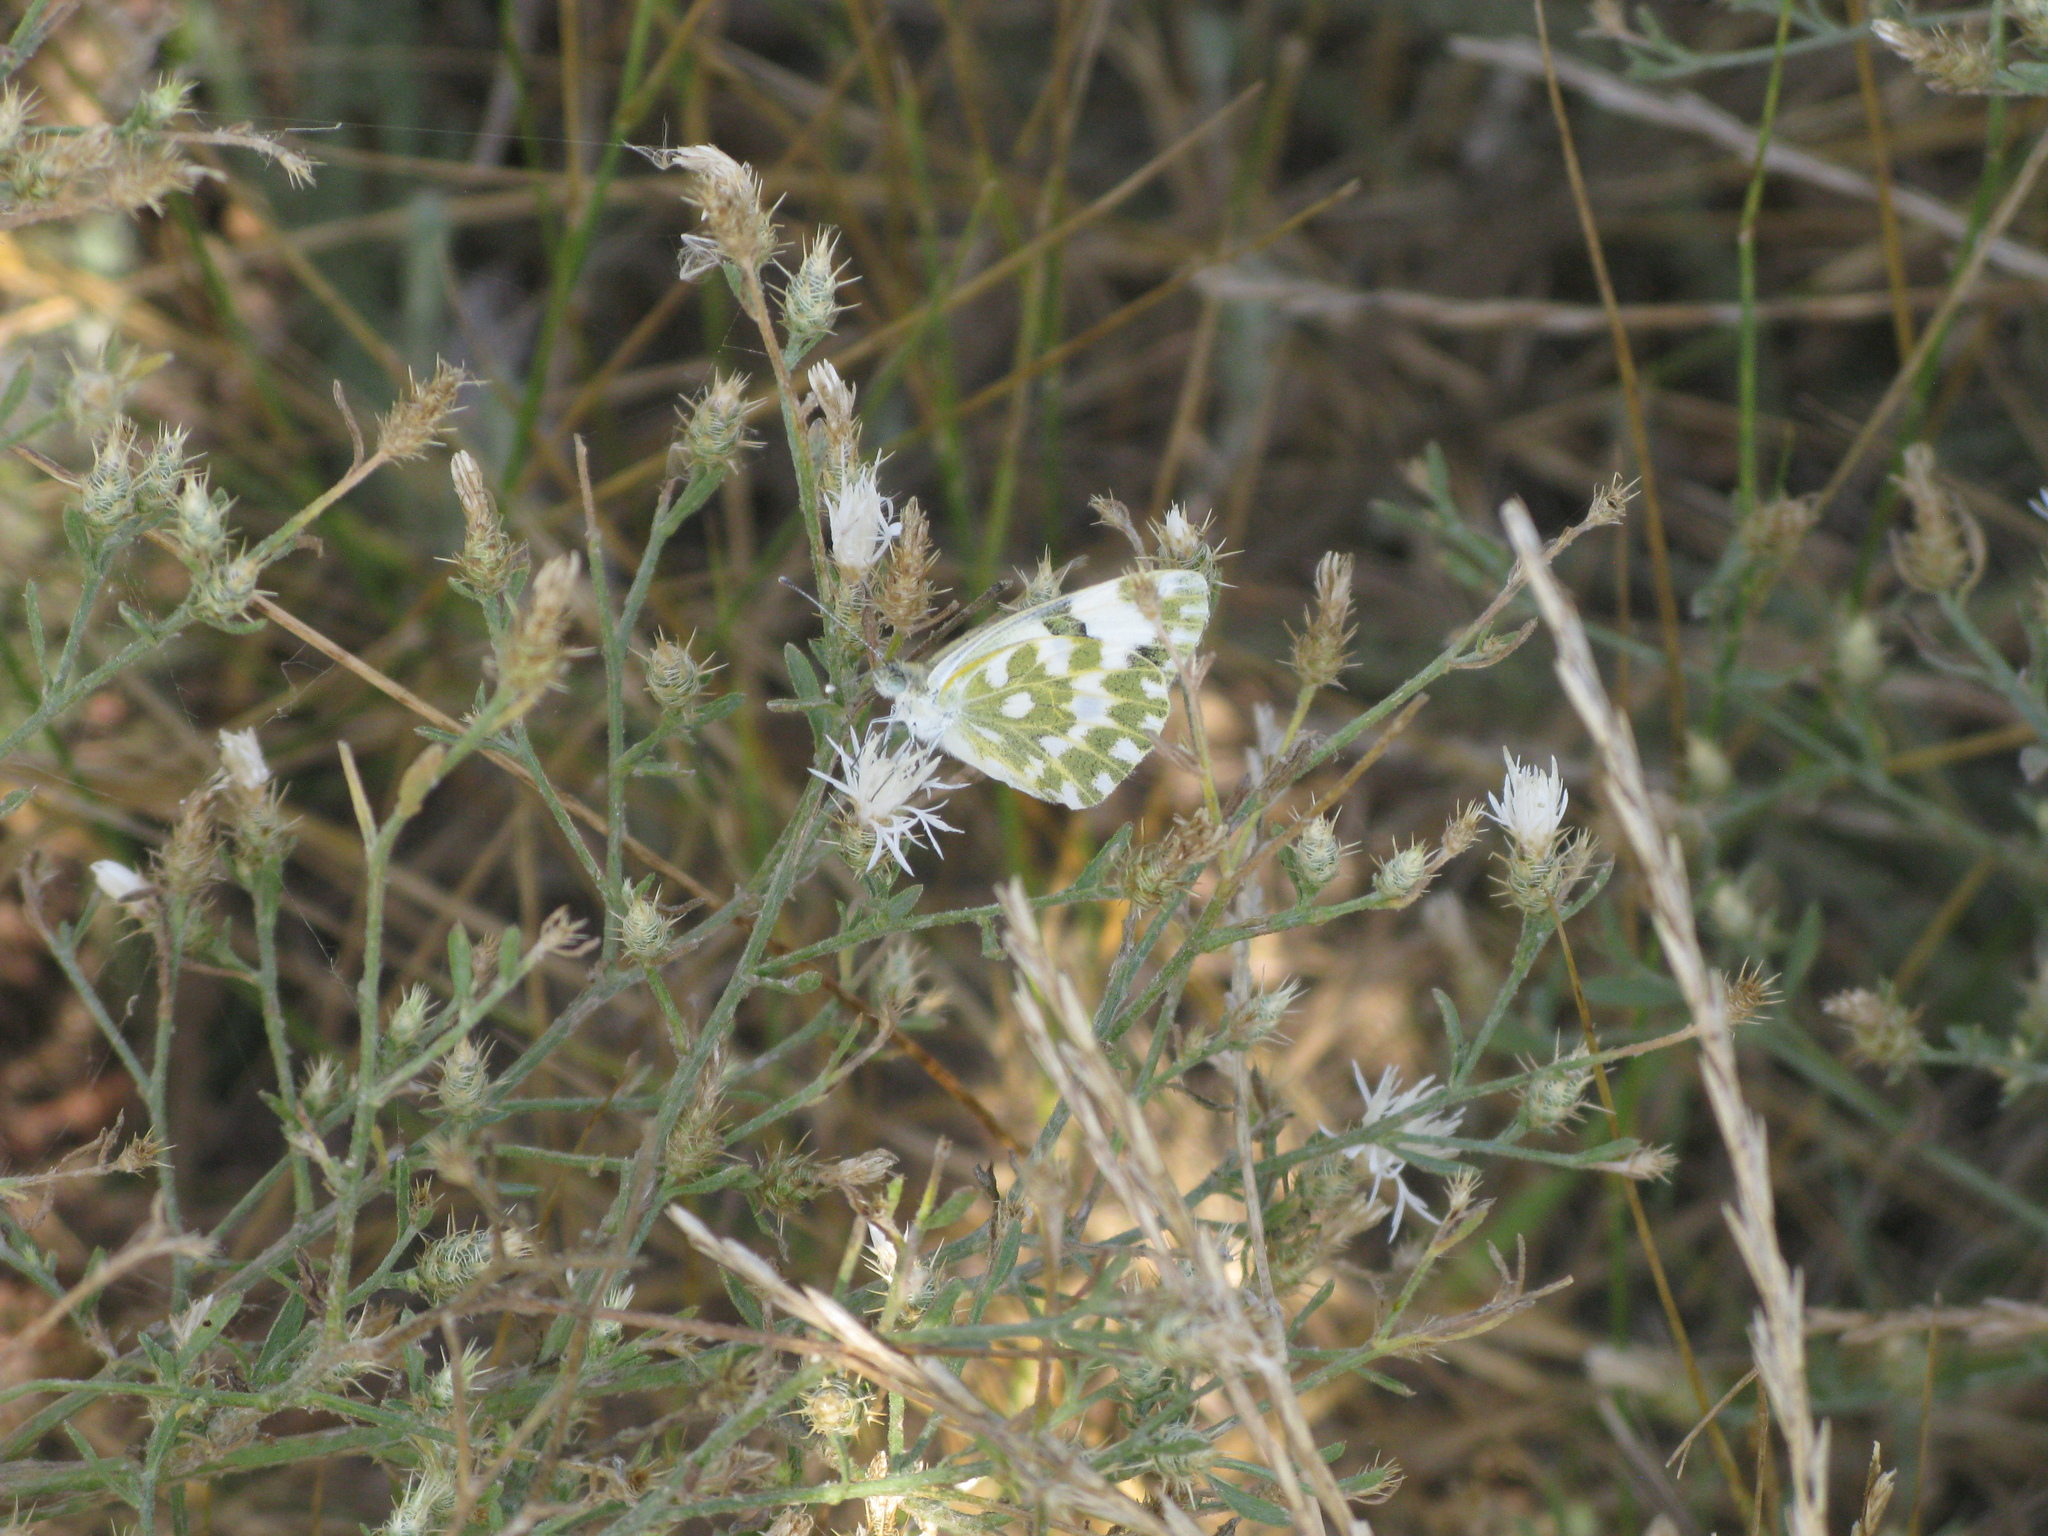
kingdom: Animalia
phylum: Arthropoda
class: Insecta
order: Lepidoptera
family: Pieridae
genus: Pontia
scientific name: Pontia edusa
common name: Eastern bath white
